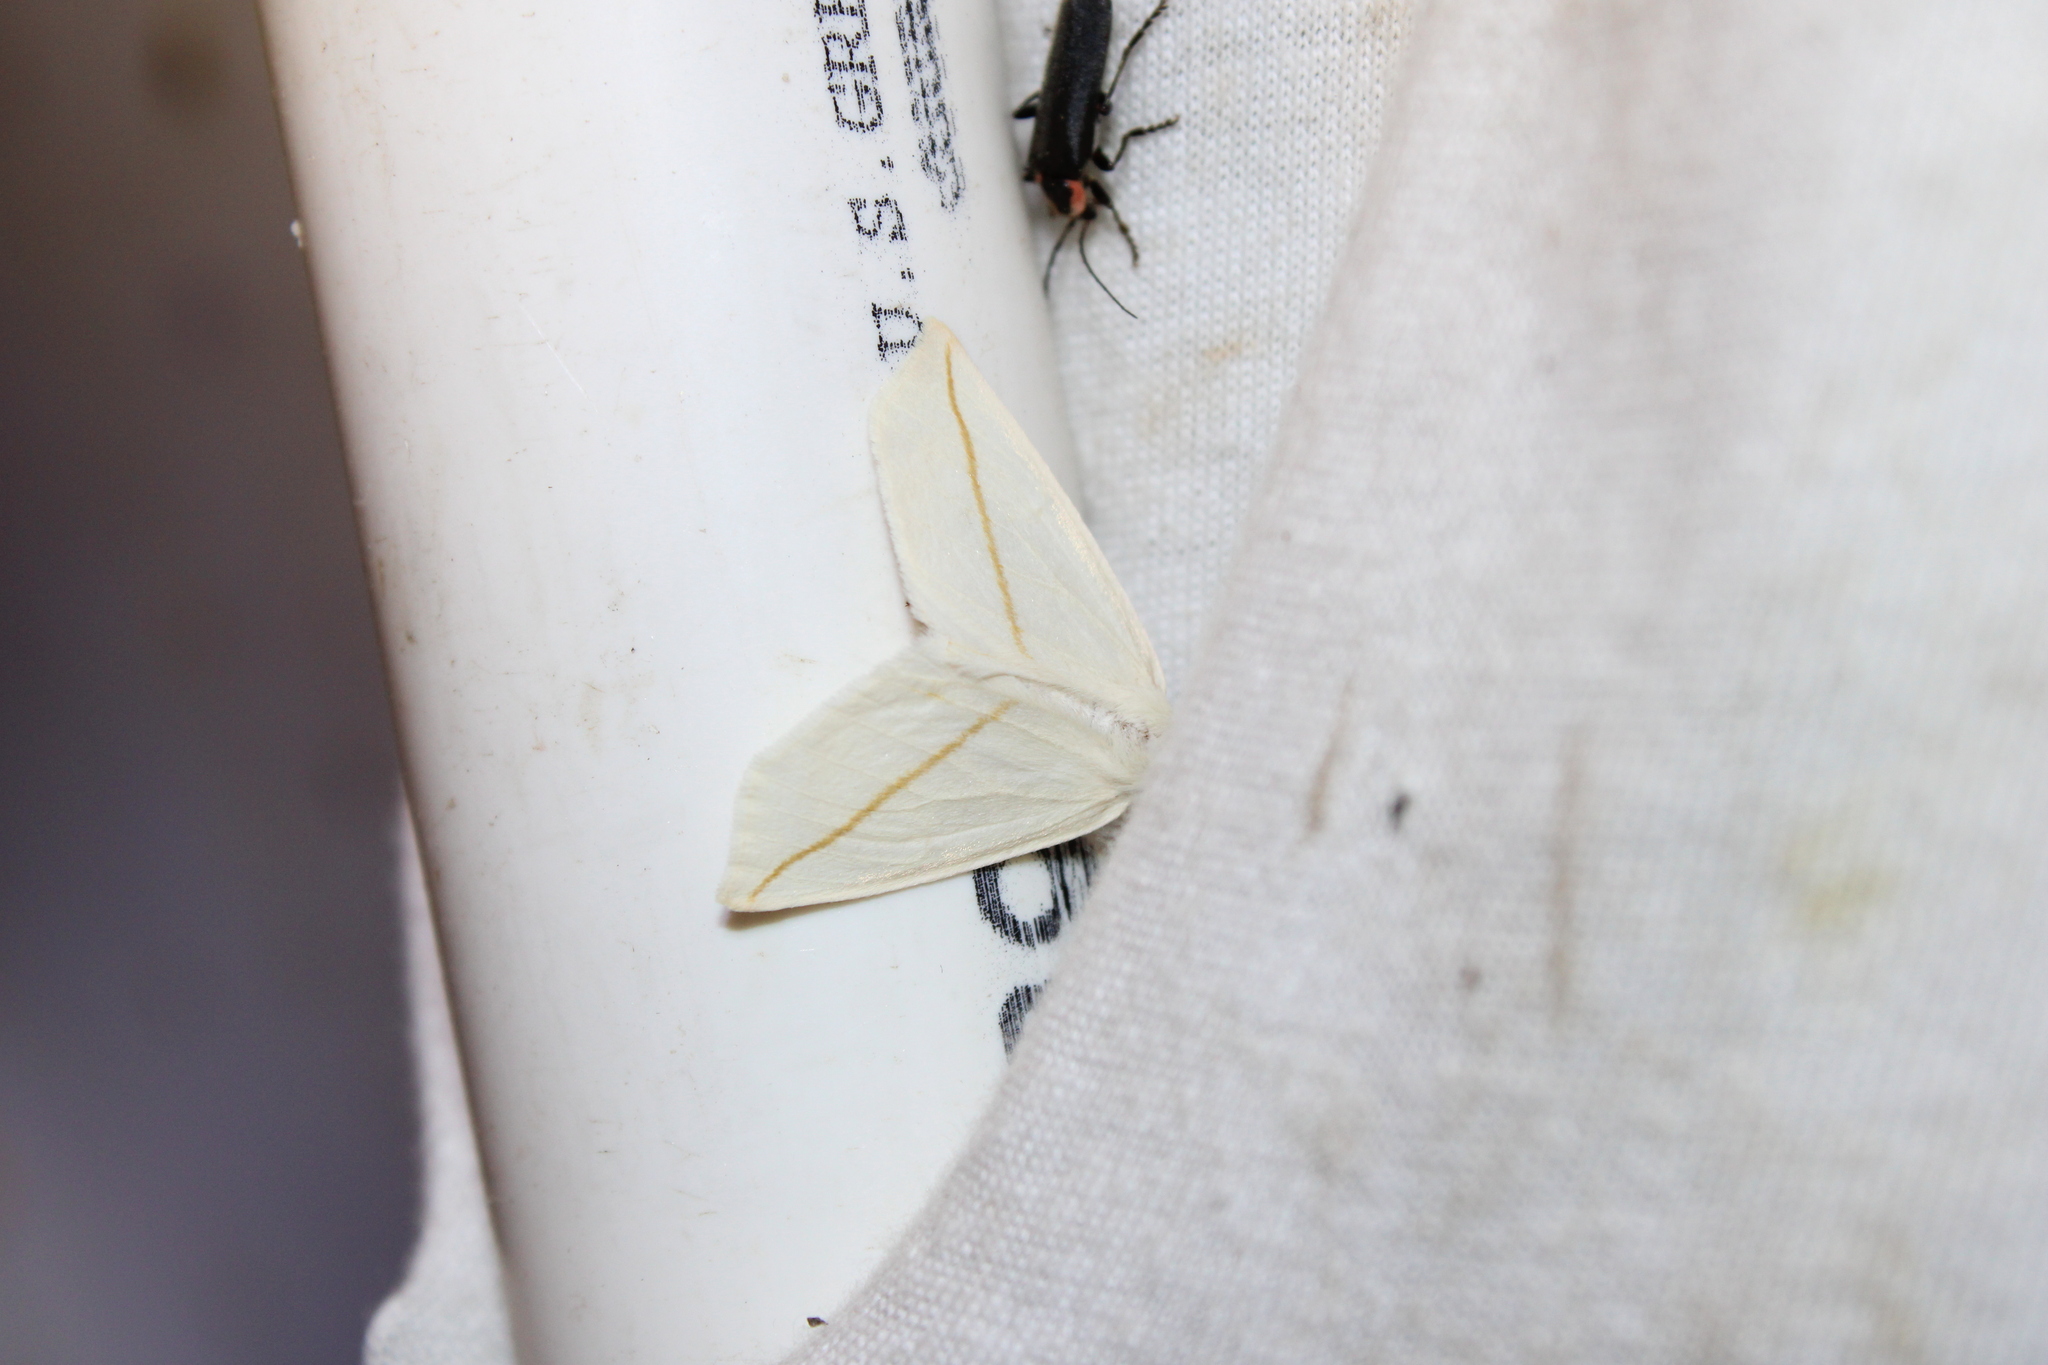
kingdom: Animalia
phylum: Arthropoda
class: Insecta
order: Lepidoptera
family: Geometridae
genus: Tetracis
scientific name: Tetracis cachexiata
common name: White slant-line
